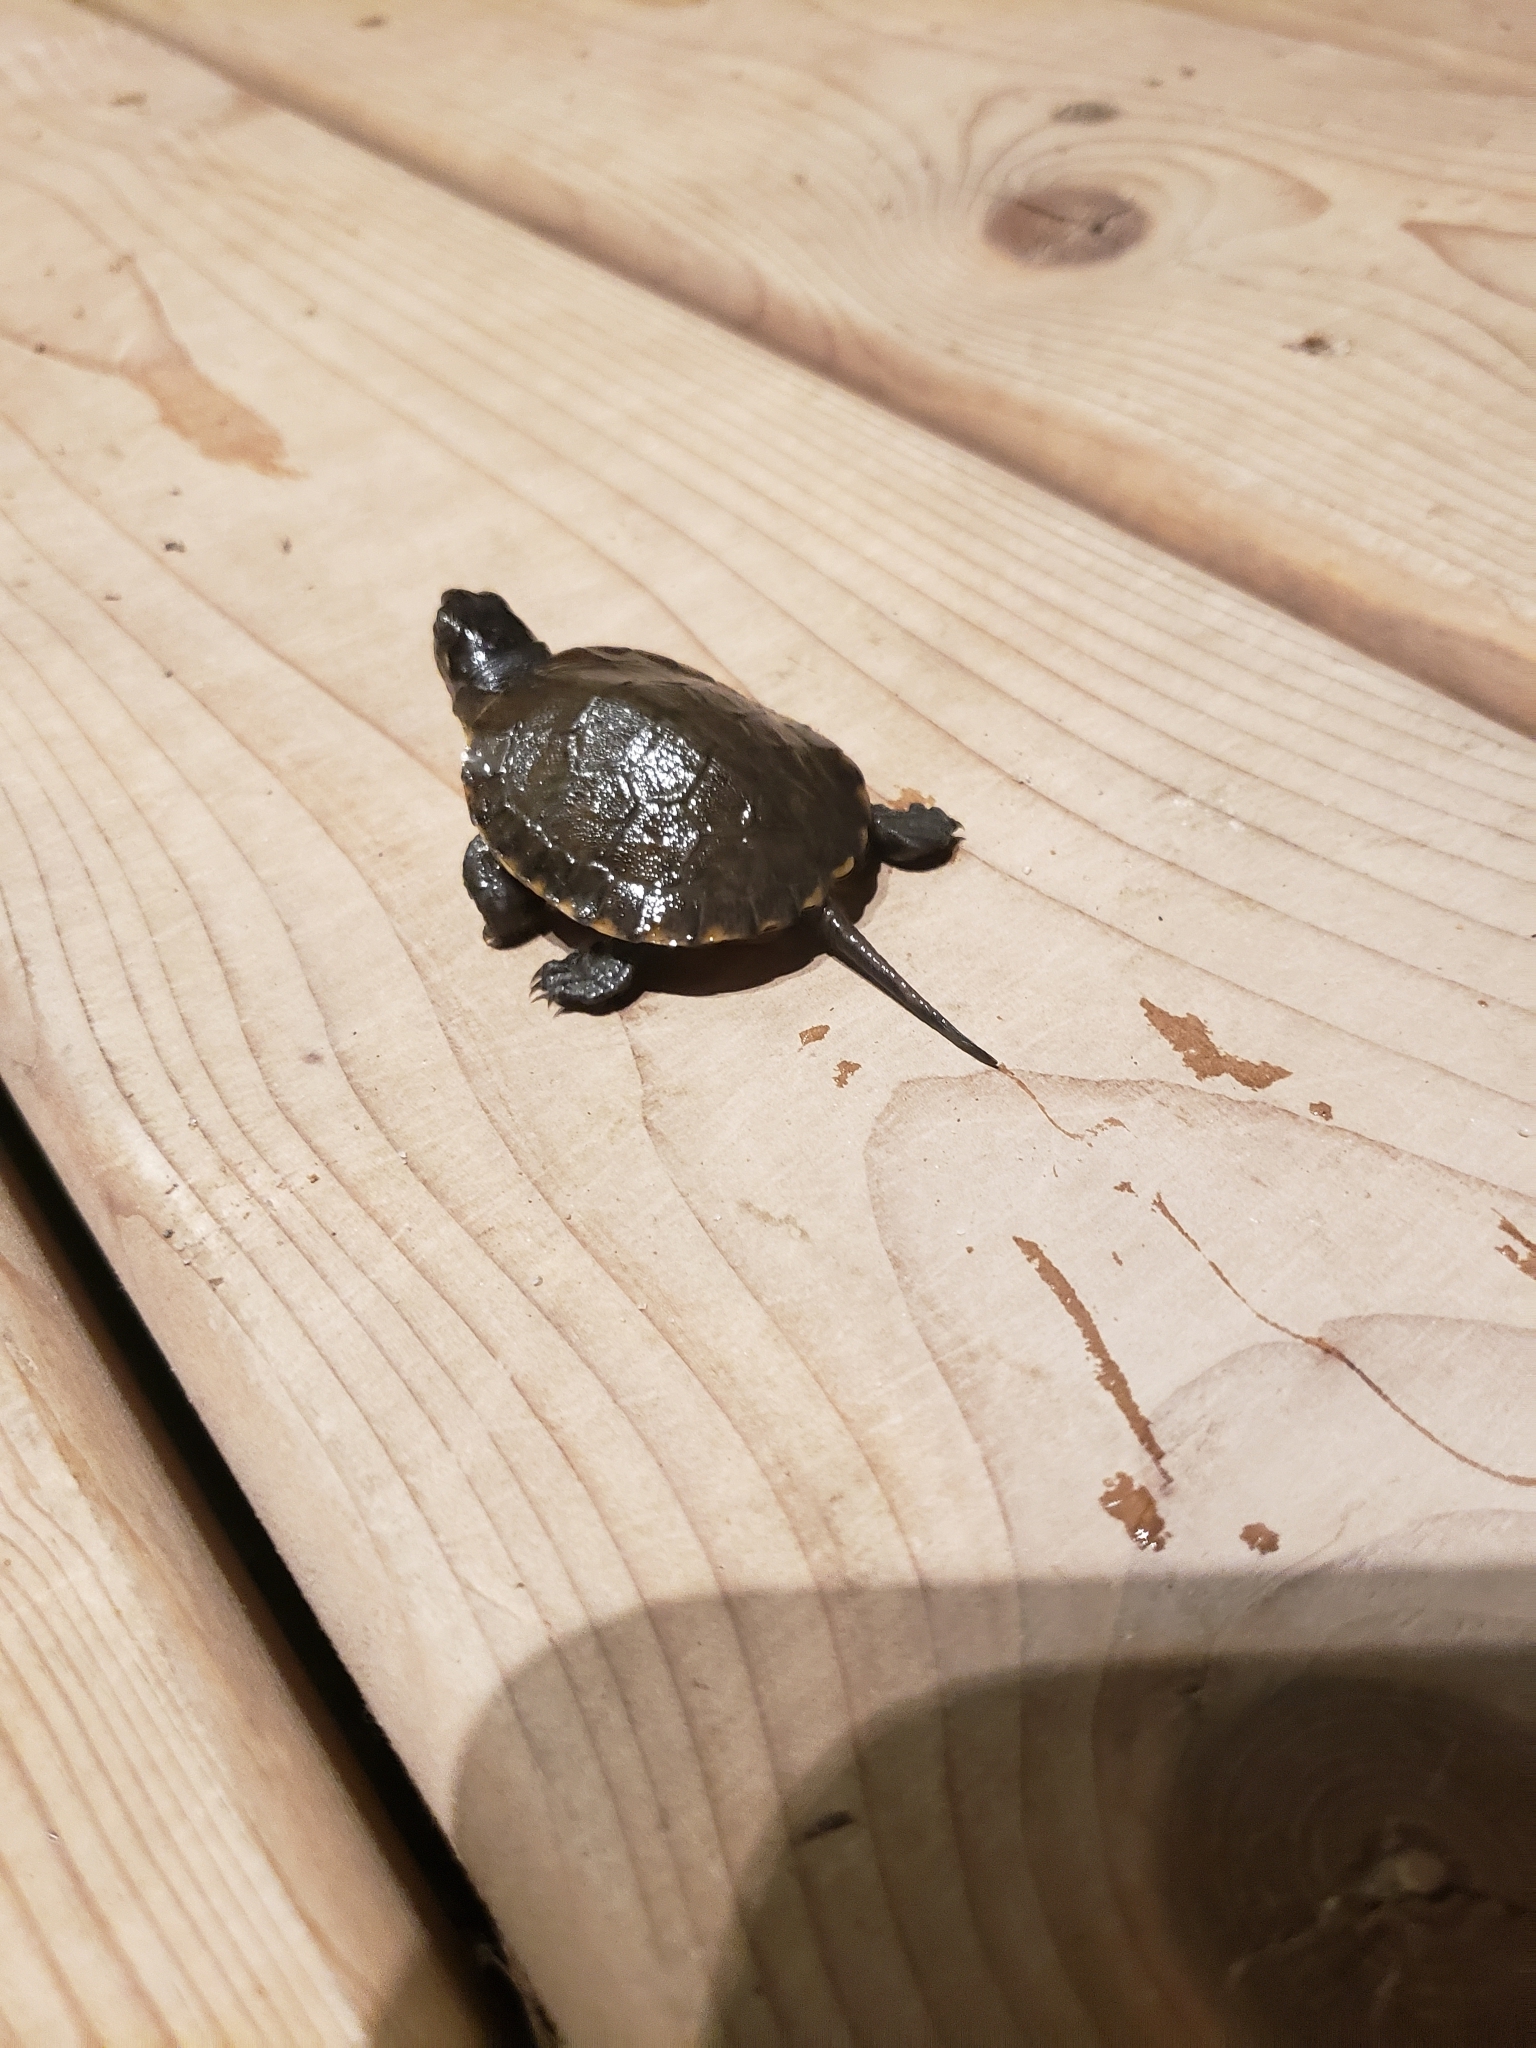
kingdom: Animalia
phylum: Chordata
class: Testudines
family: Emydidae
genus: Emys
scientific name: Emys blandingii
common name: Blanding's turtle
